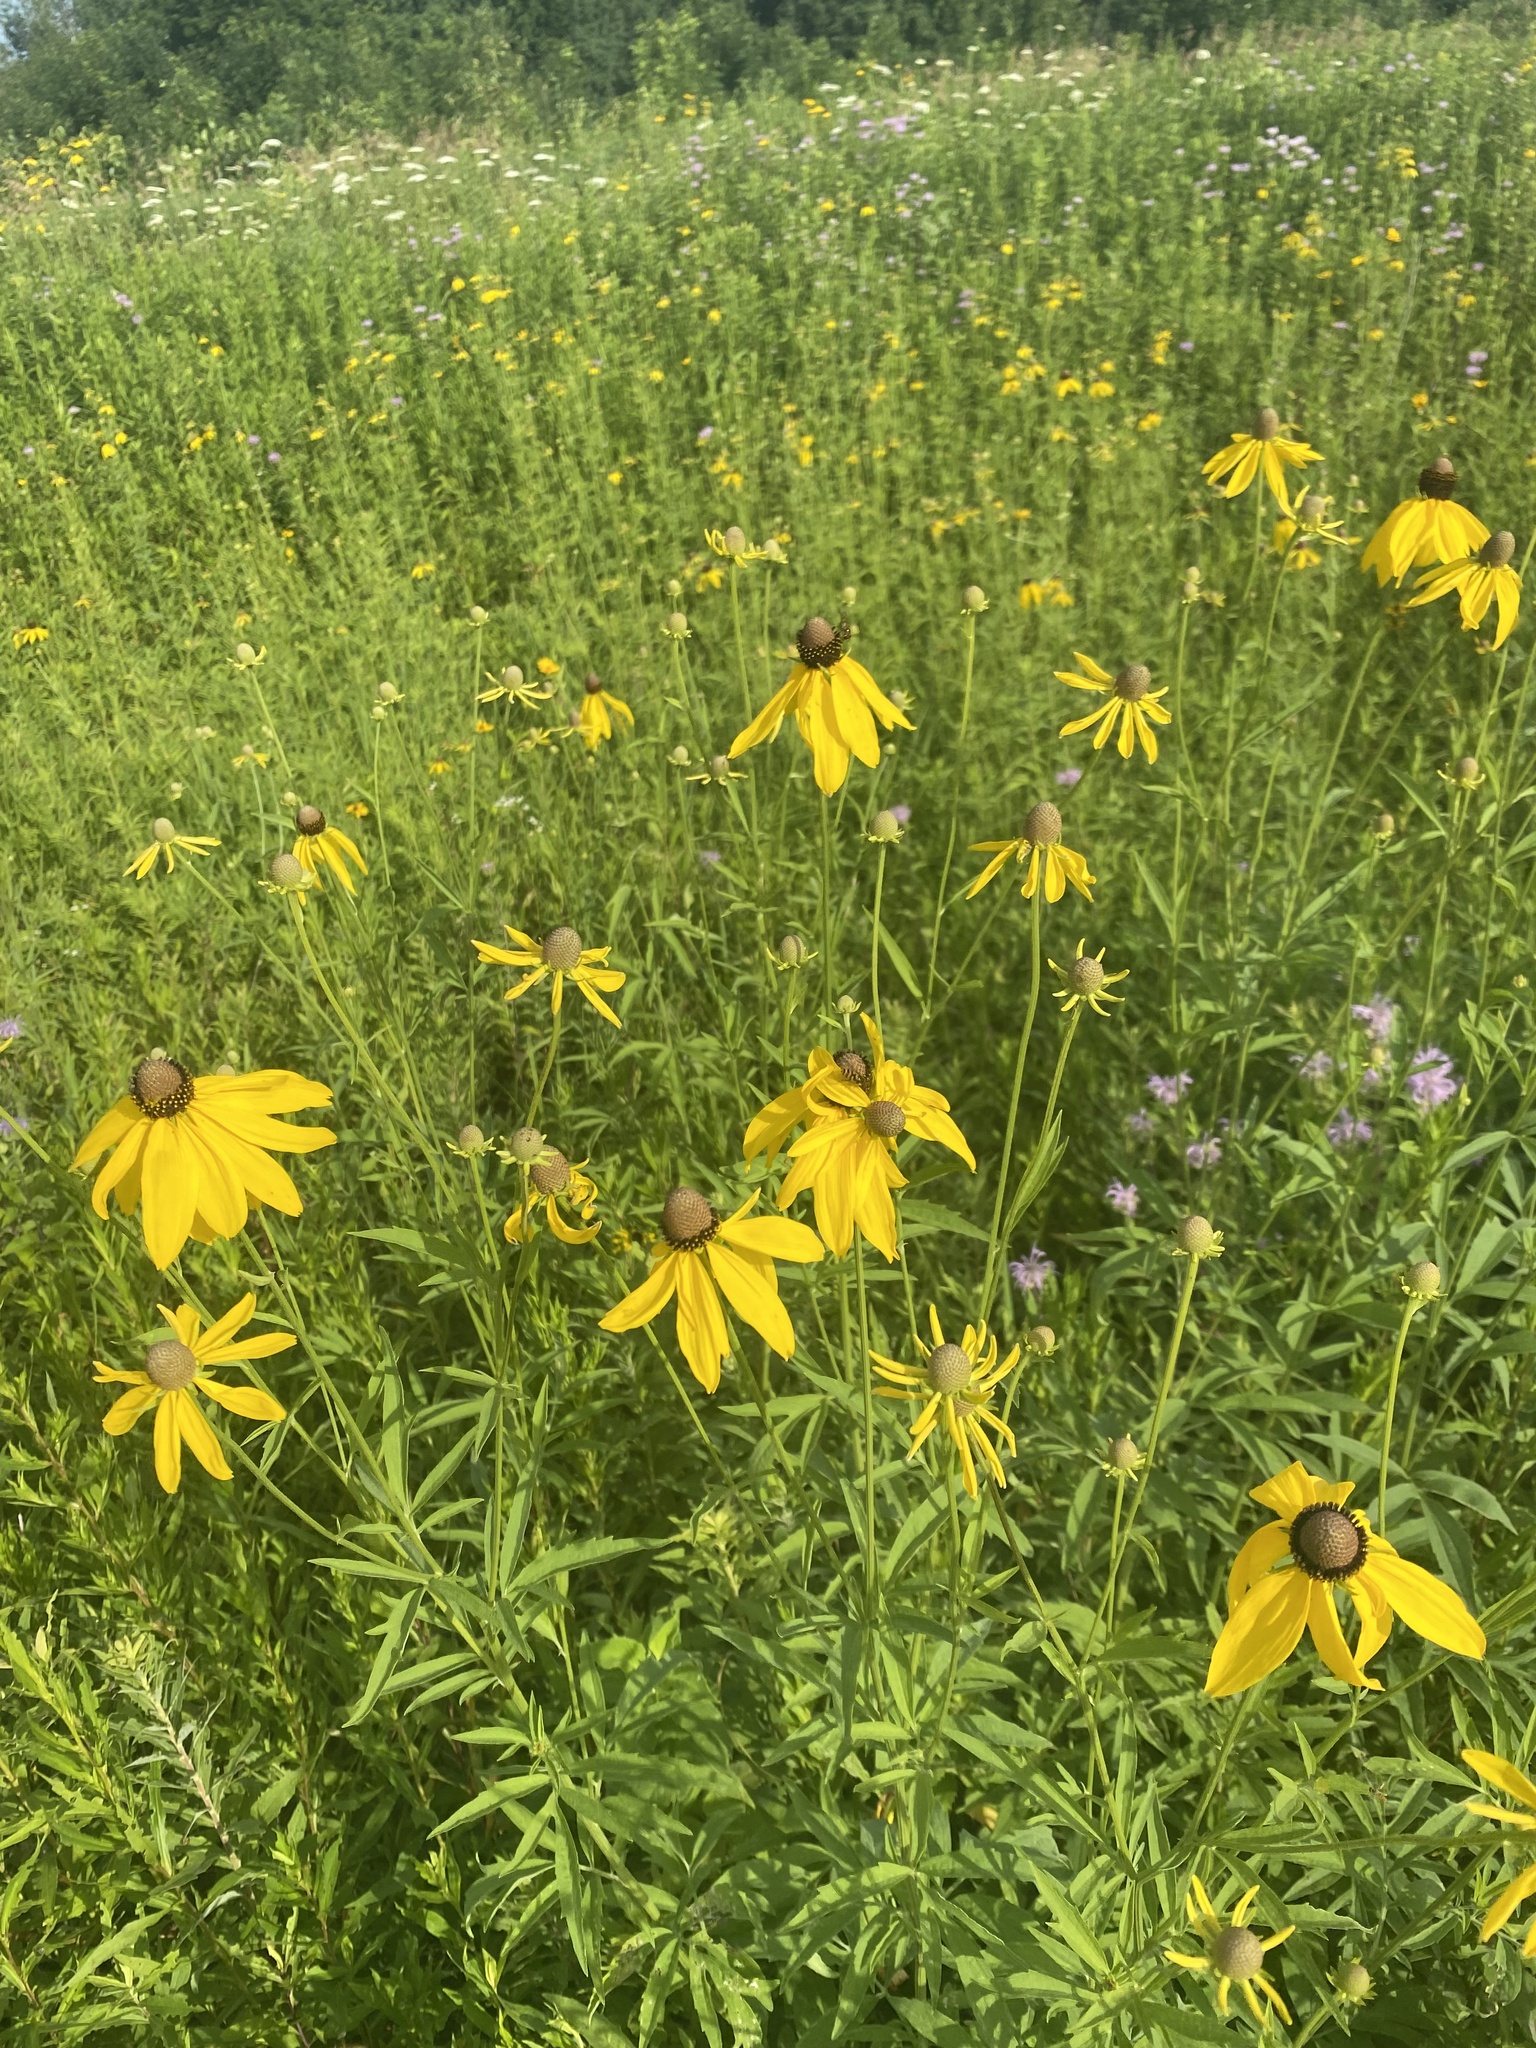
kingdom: Plantae
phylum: Tracheophyta
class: Magnoliopsida
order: Asterales
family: Asteraceae
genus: Ratibida
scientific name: Ratibida pinnata
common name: Drooping prairie-coneflower
